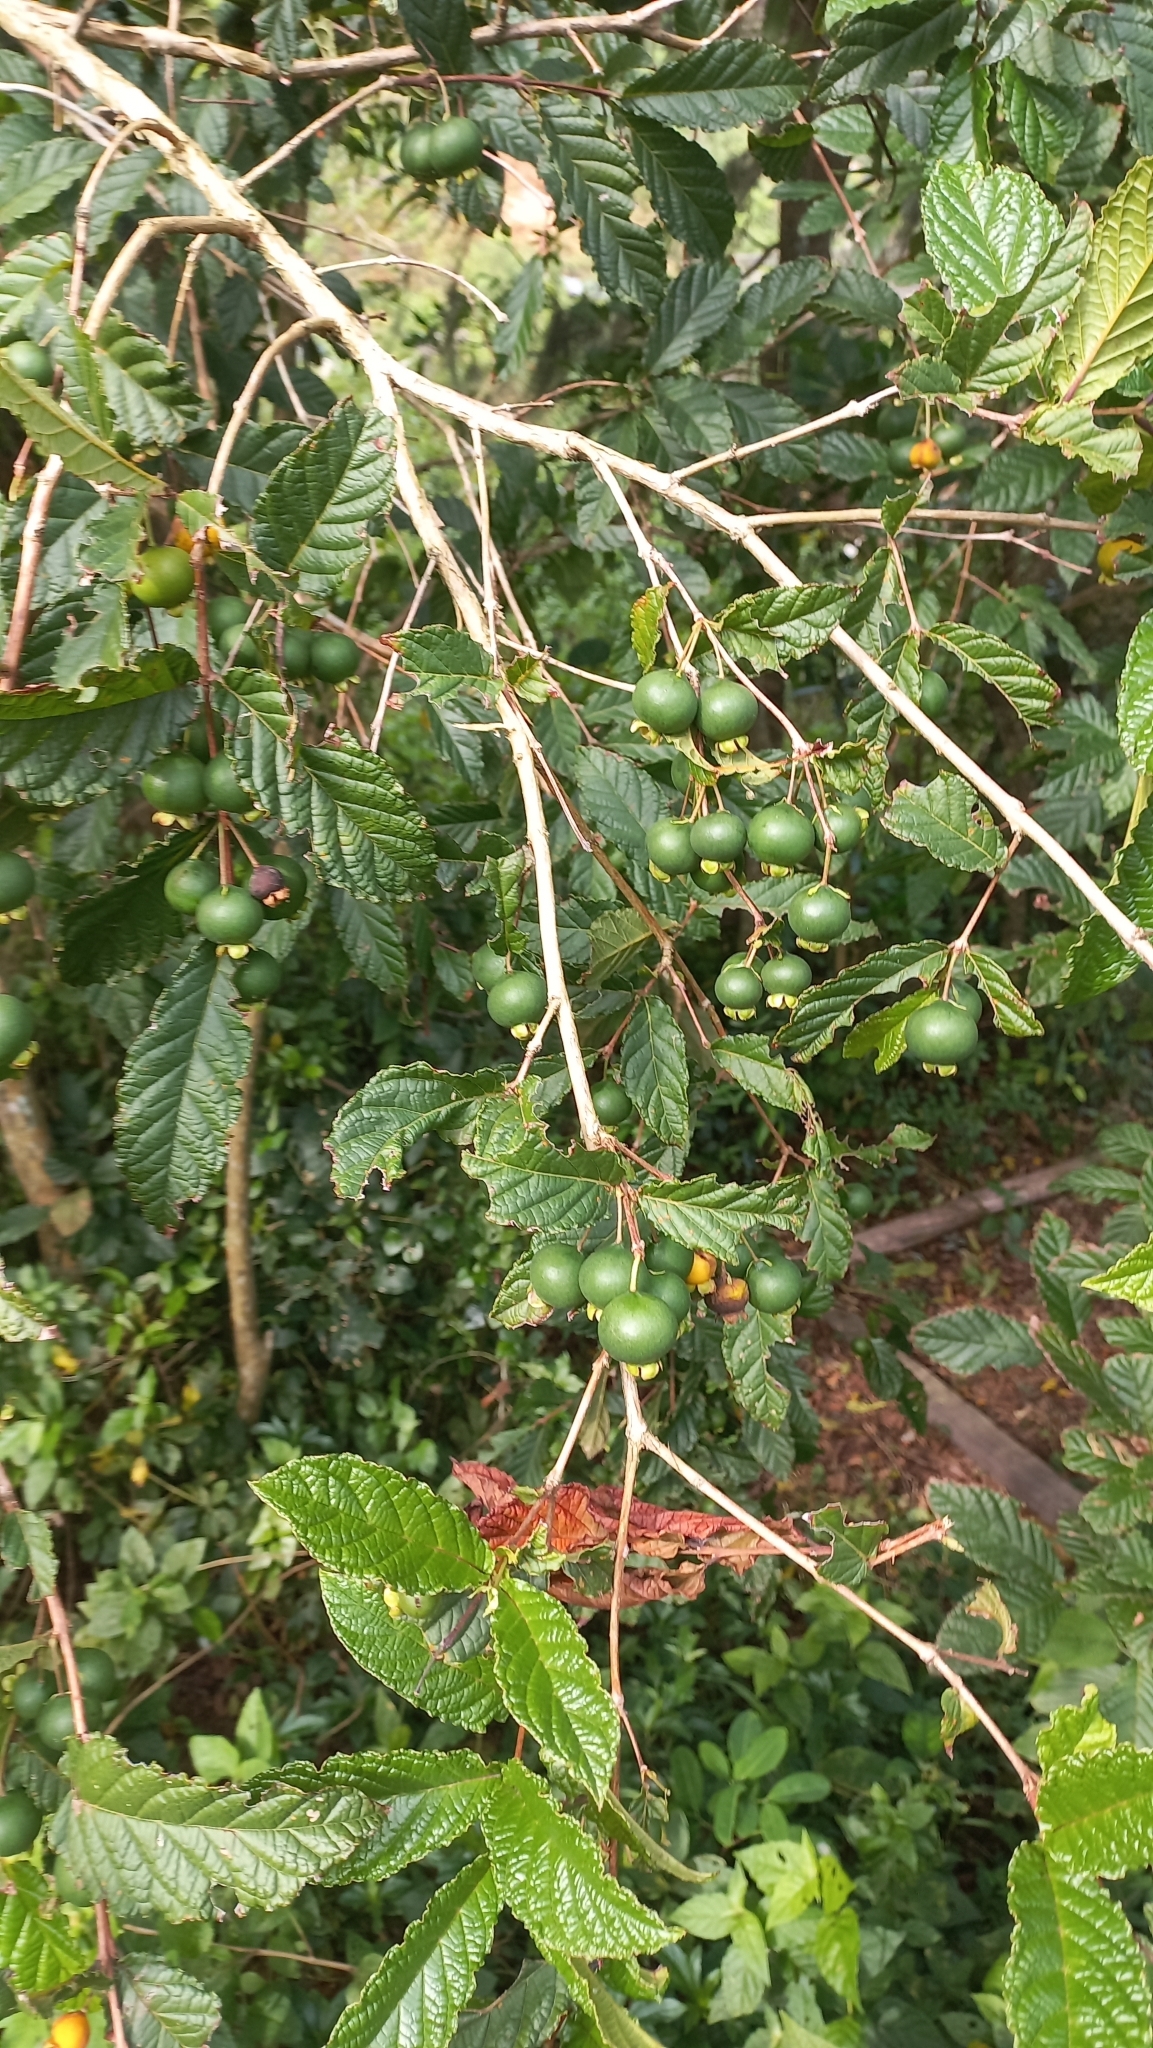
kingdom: Plantae
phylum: Tracheophyta
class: Magnoliopsida
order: Myrtales
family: Myrtaceae
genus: Campomanesia
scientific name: Campomanesia reitziana
